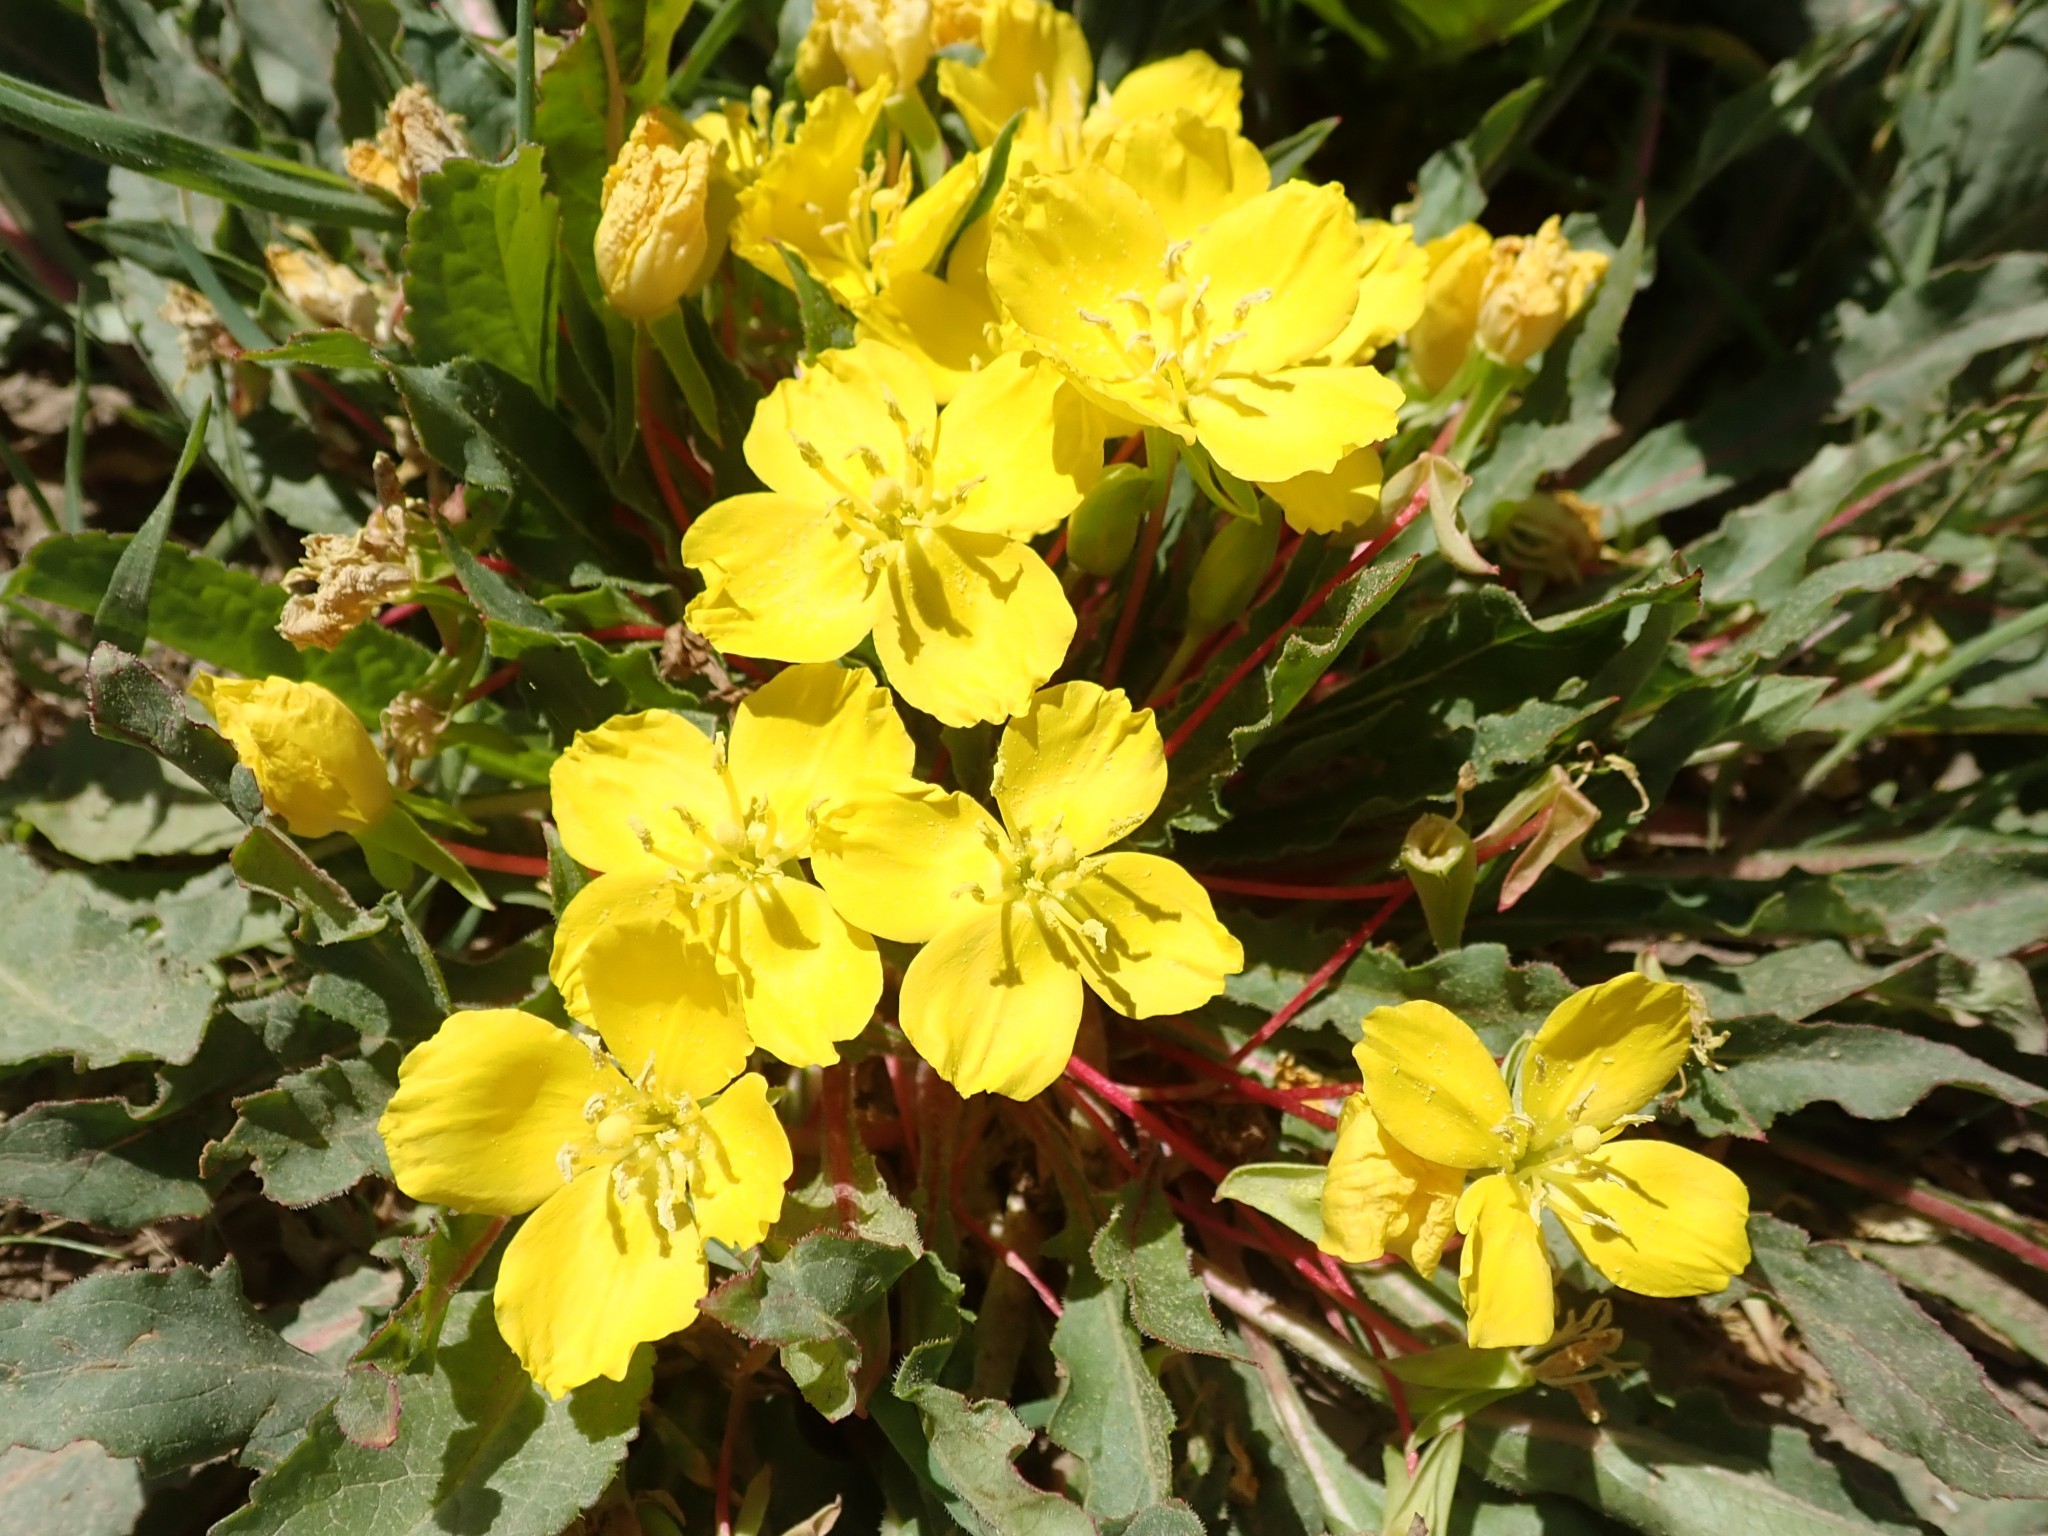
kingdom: Plantae
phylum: Tracheophyta
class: Magnoliopsida
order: Myrtales
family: Onagraceae
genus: Taraxia
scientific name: Taraxia ovata
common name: Goldeneggs
